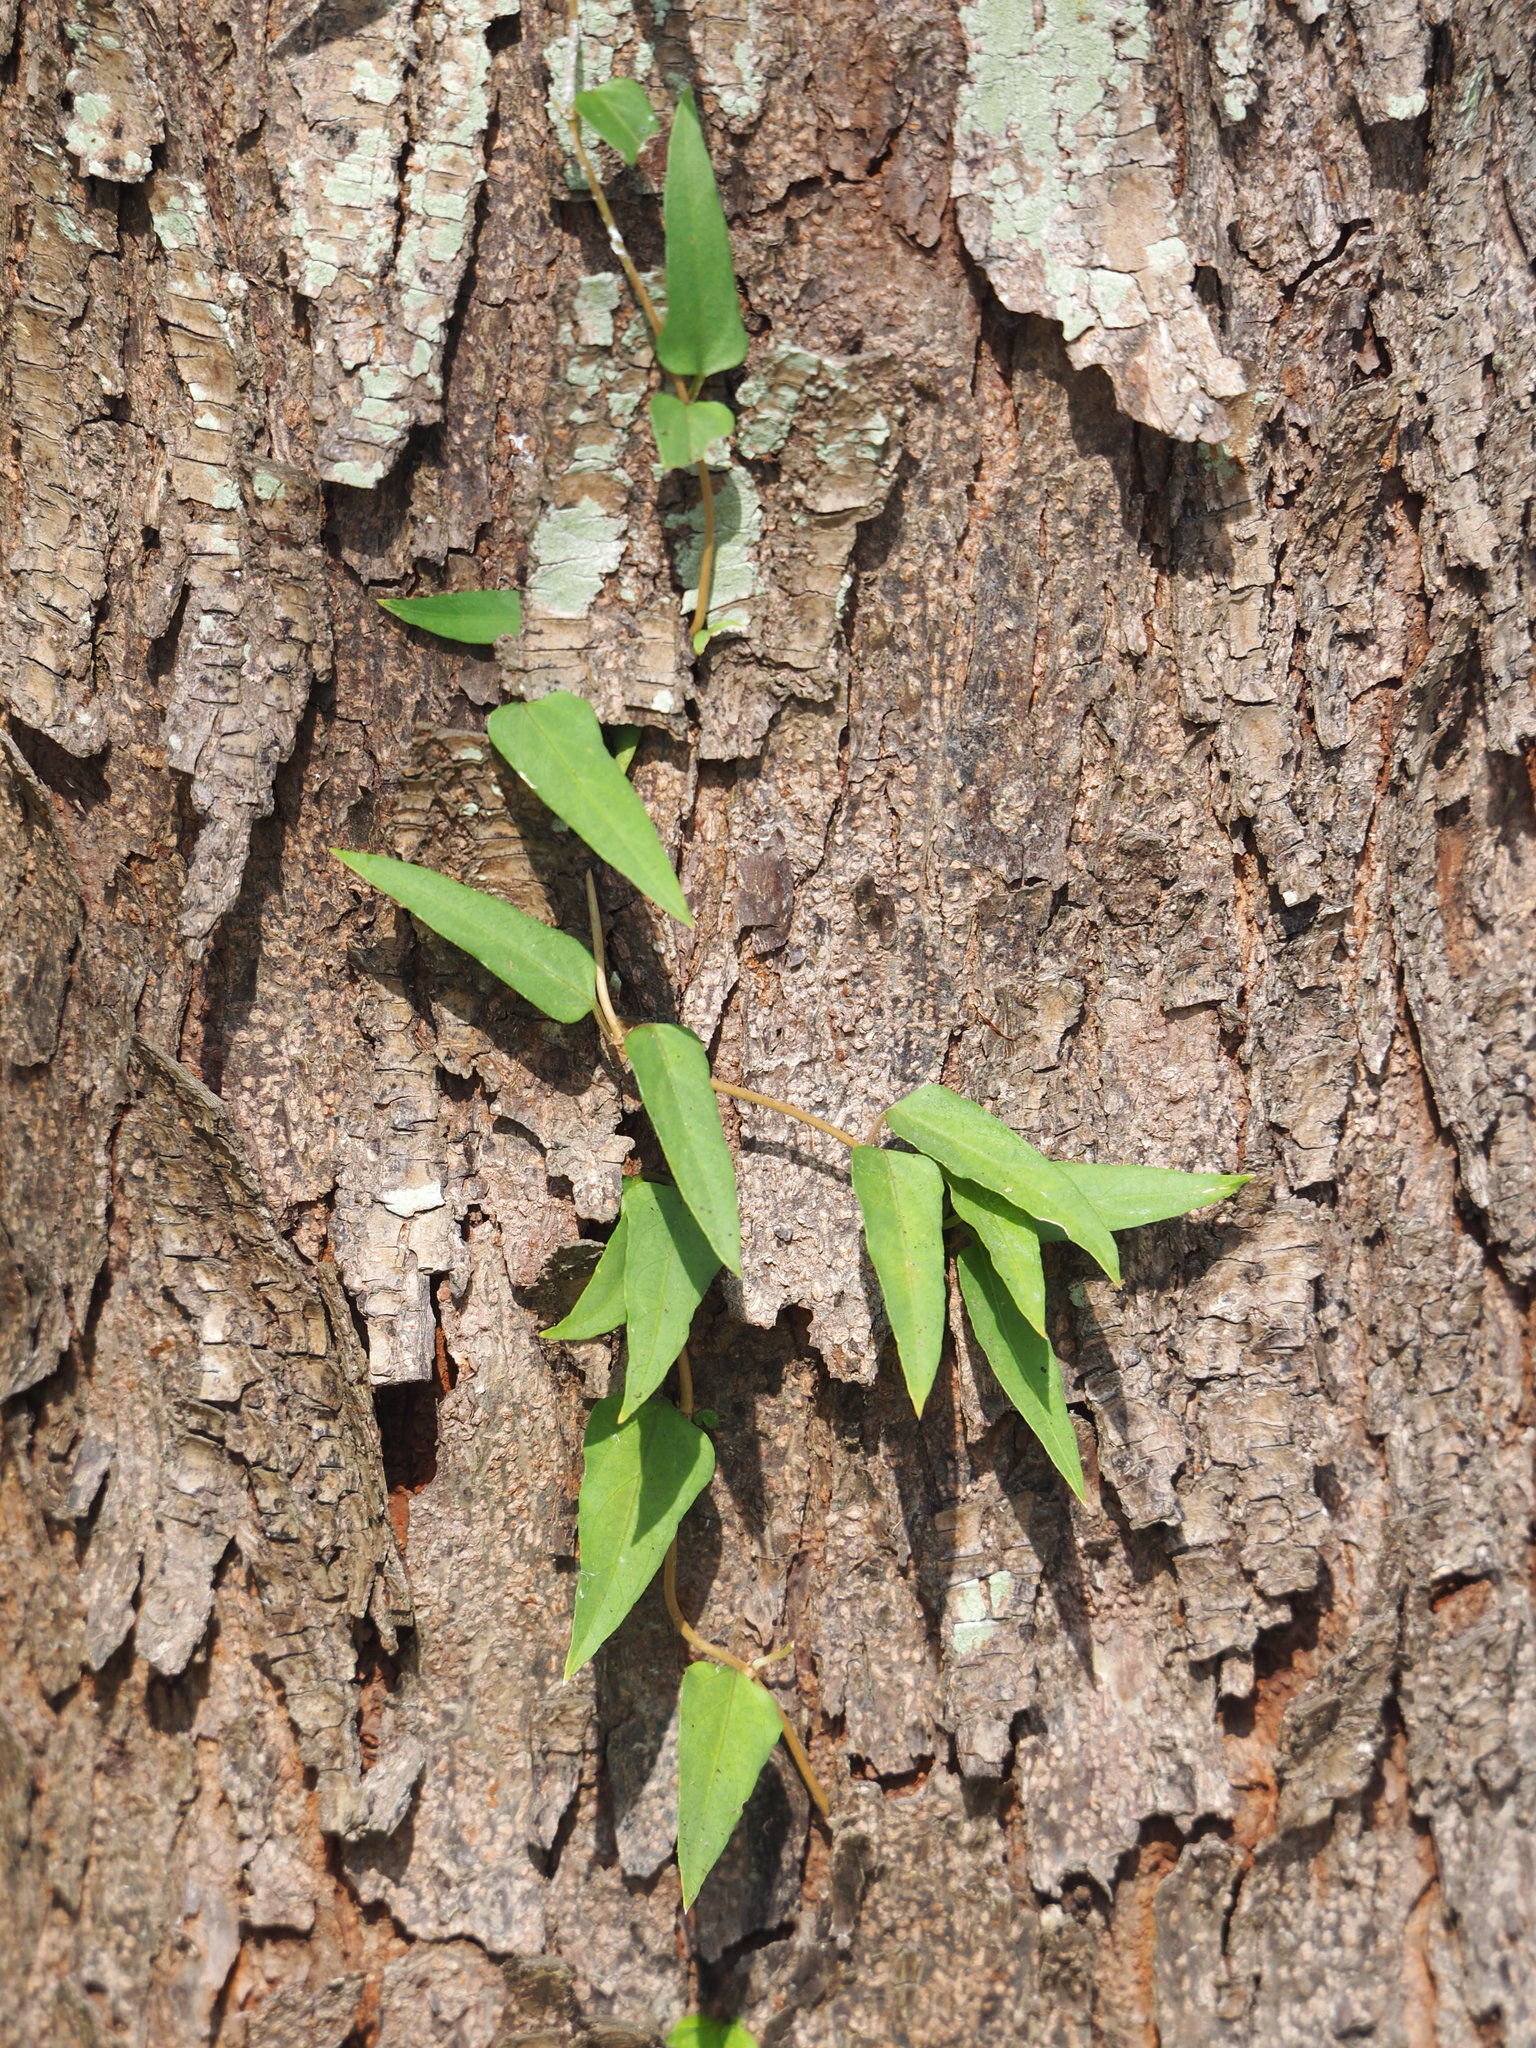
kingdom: Plantae
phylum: Tracheophyta
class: Magnoliopsida
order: Gentianales
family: Rubiaceae
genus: Paederia
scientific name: Paederia foetida
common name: Stinkvine
